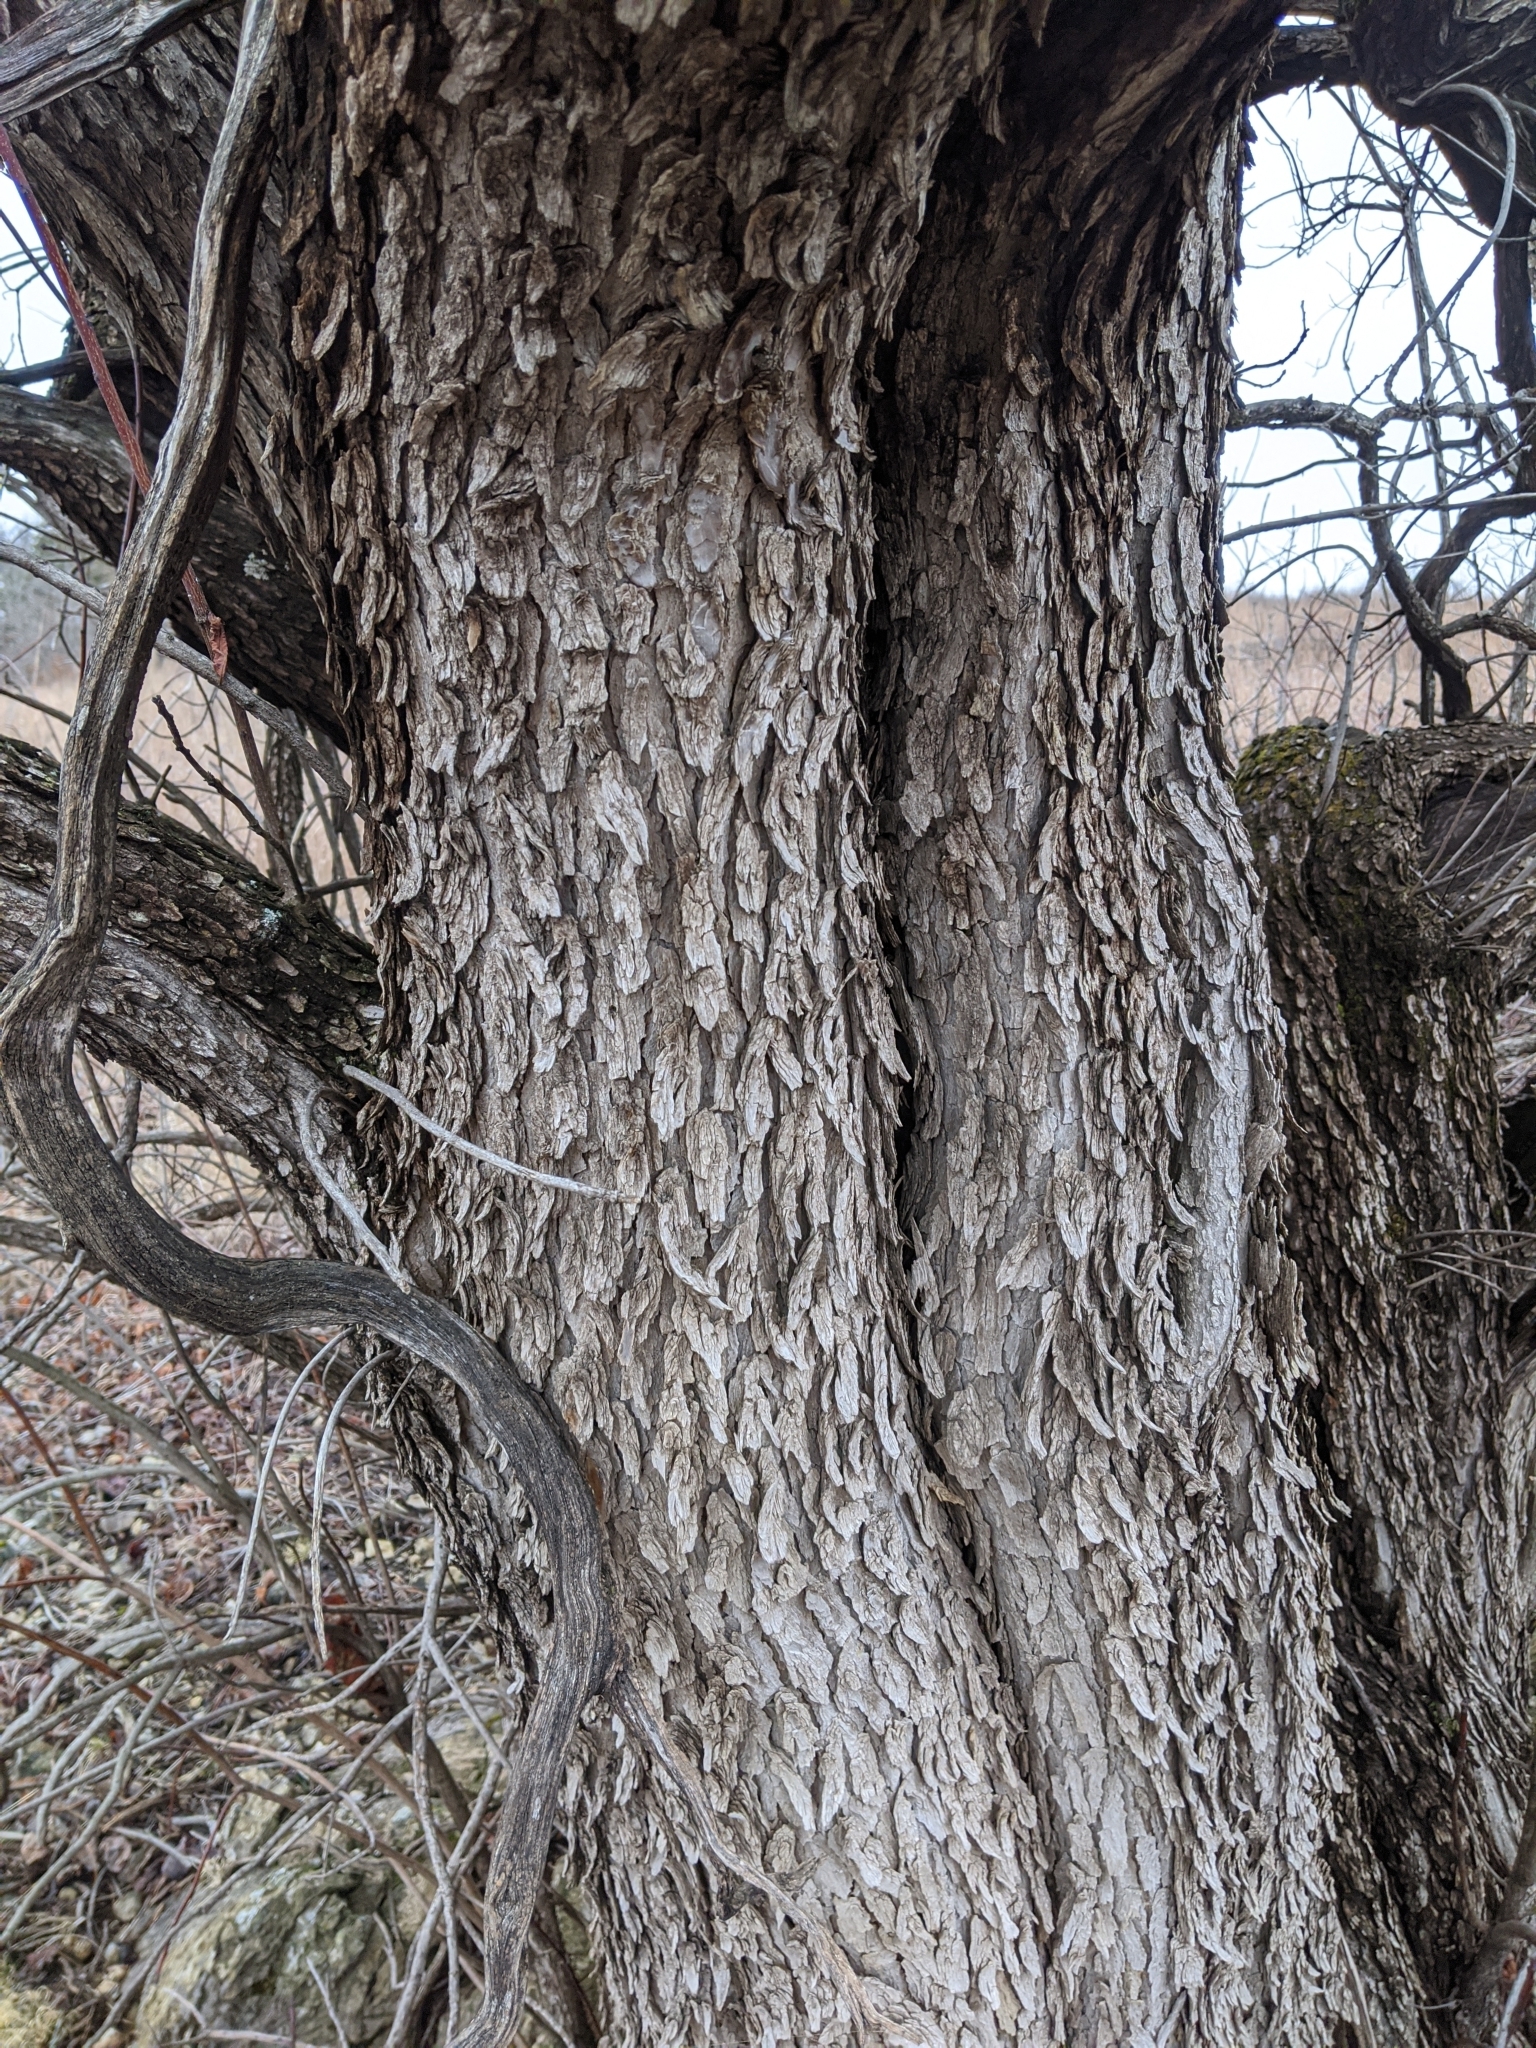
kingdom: Plantae
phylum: Tracheophyta
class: Magnoliopsida
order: Sapindales
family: Anacardiaceae
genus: Cotinus
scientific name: Cotinus obovatus
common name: Chittamwood
